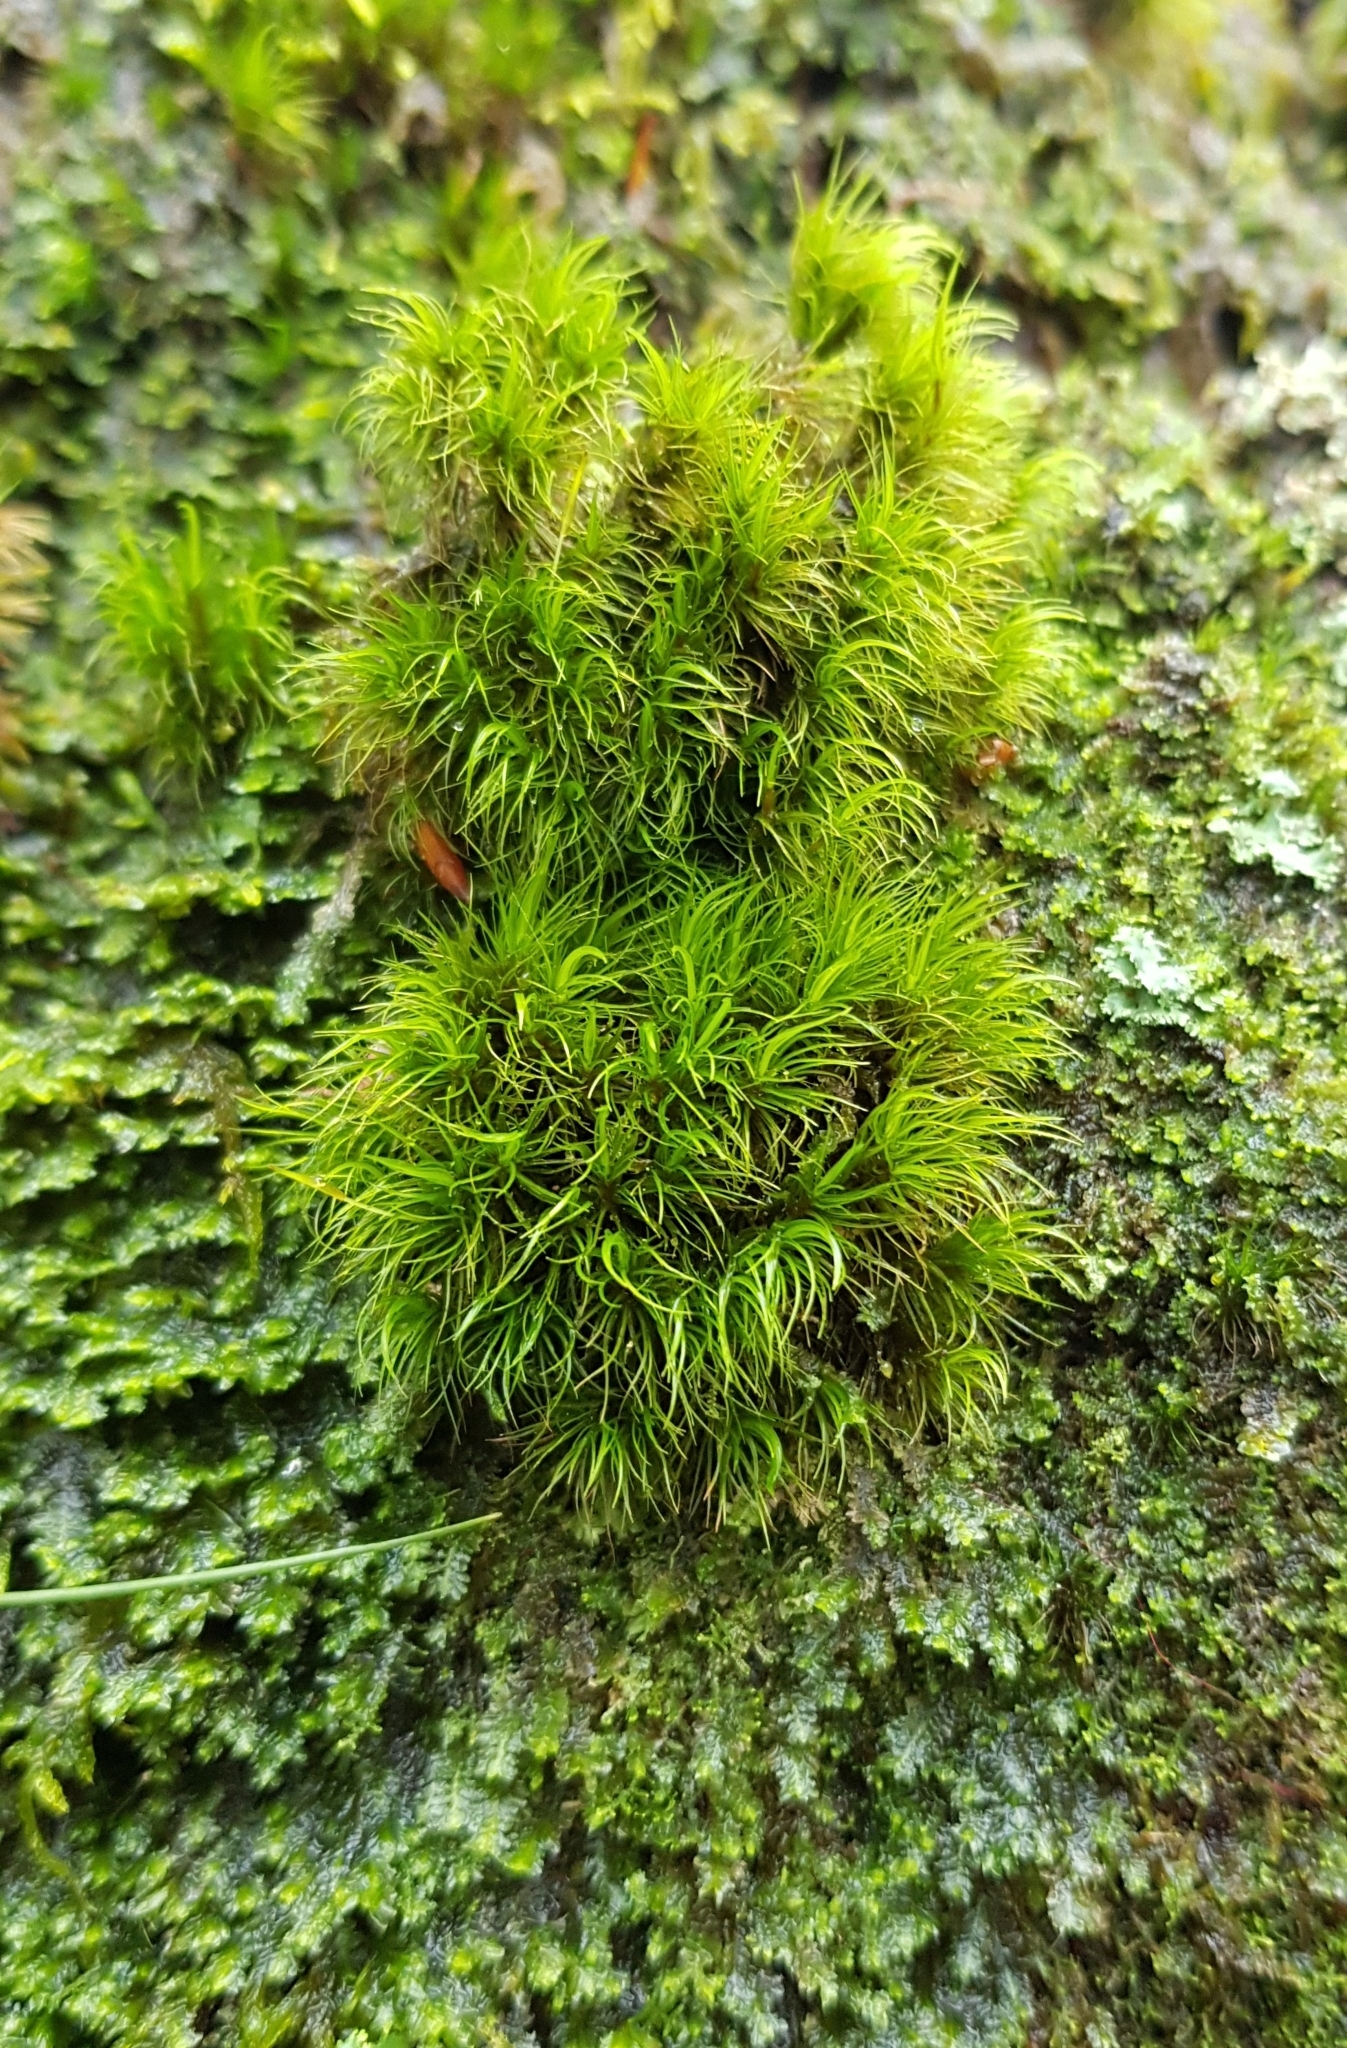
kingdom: Plantae
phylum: Bryophyta
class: Bryopsida
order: Dicranales
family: Dicranaceae
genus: Dicranum
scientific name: Dicranum scoparium
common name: Broom fork-moss
